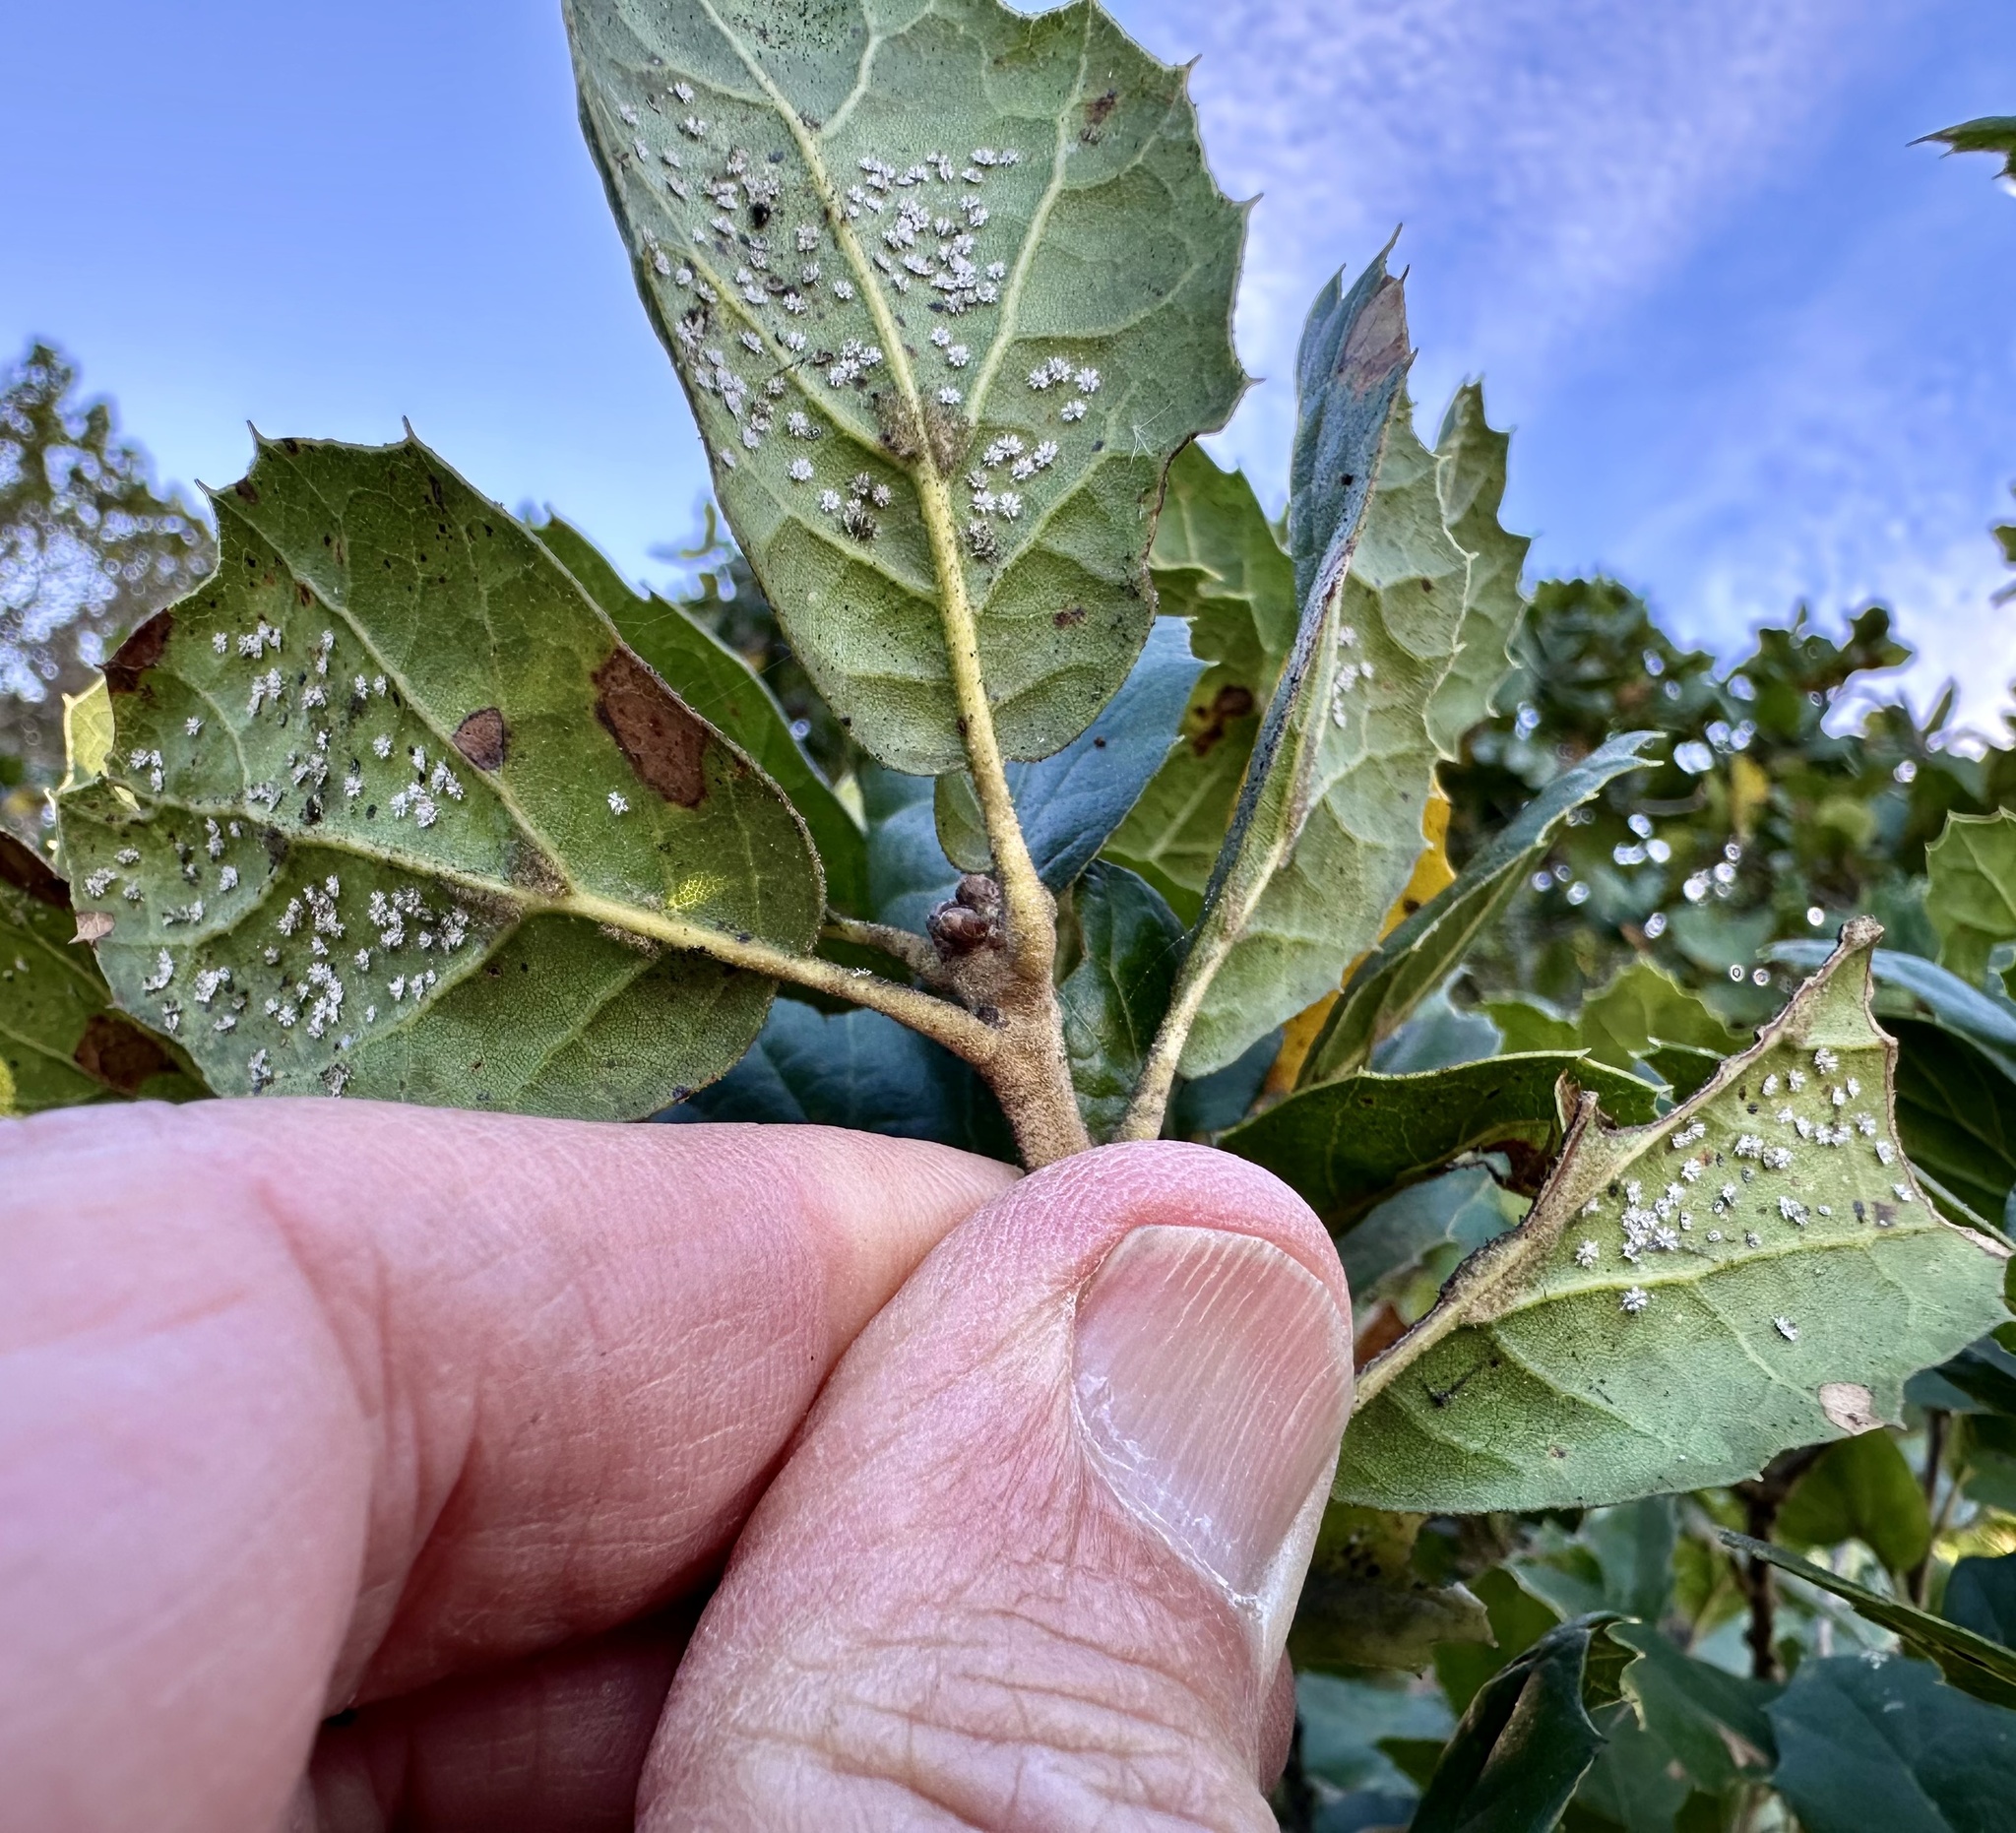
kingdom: Animalia
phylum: Arthropoda
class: Insecta
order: Hemiptera
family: Aleyrodidae
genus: Aleuroplatus
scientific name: Aleuroplatus coronata
